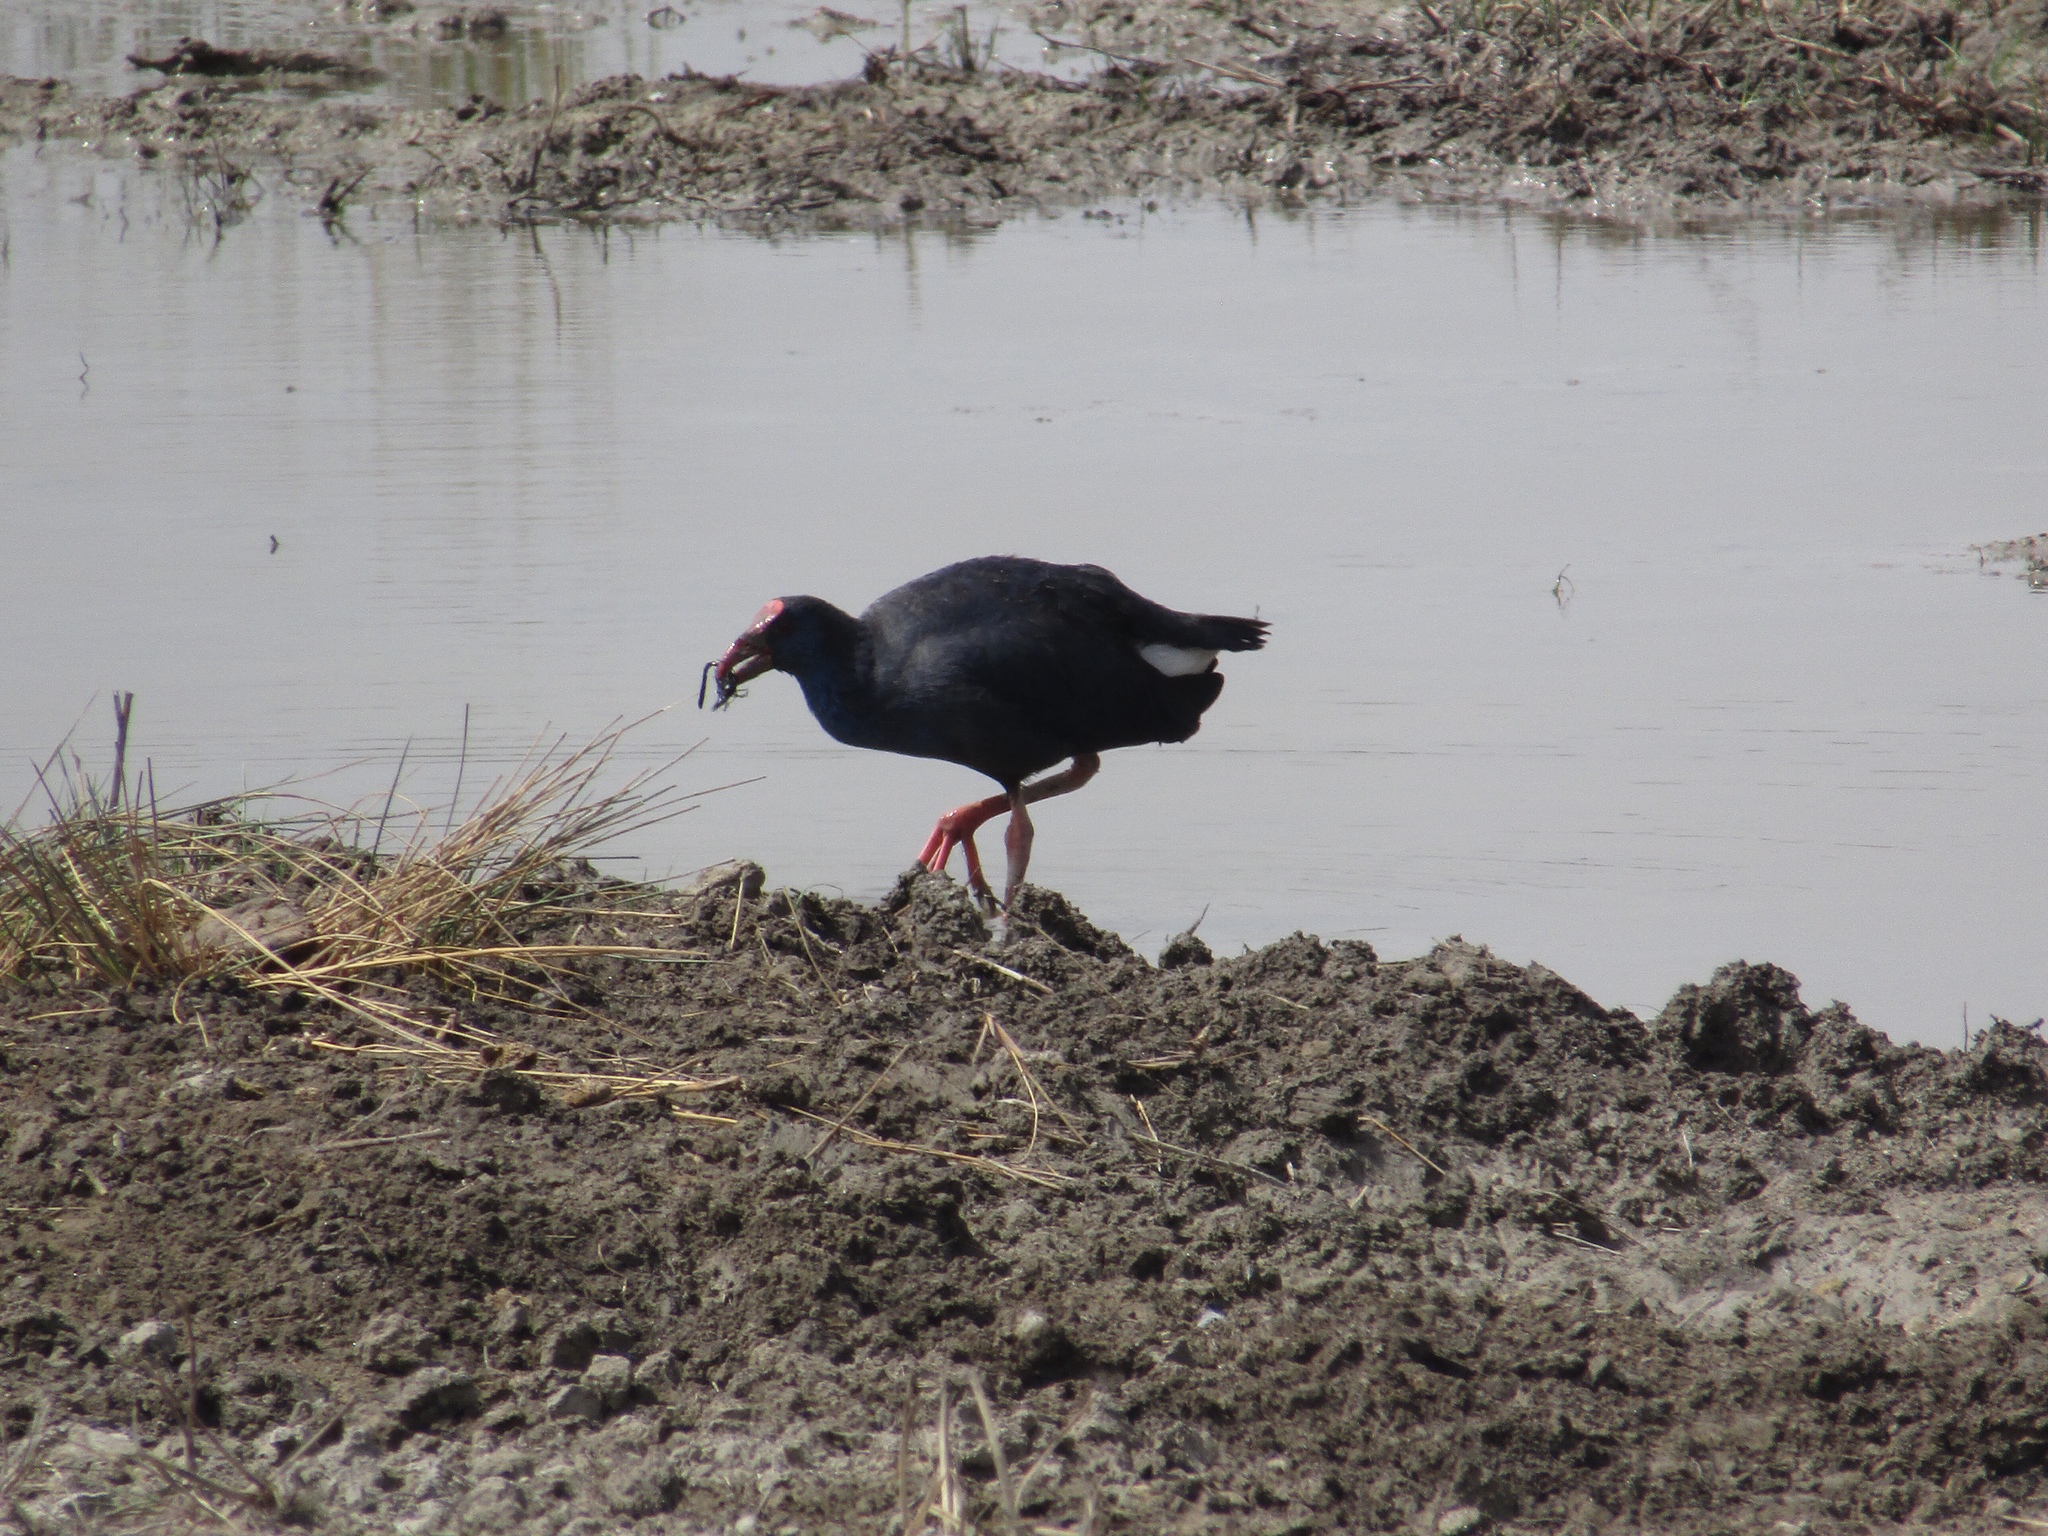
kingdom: Animalia
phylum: Chordata
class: Aves
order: Gruiformes
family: Rallidae
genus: Porphyrio
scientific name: Porphyrio porphyrio
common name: Purple swamphen
